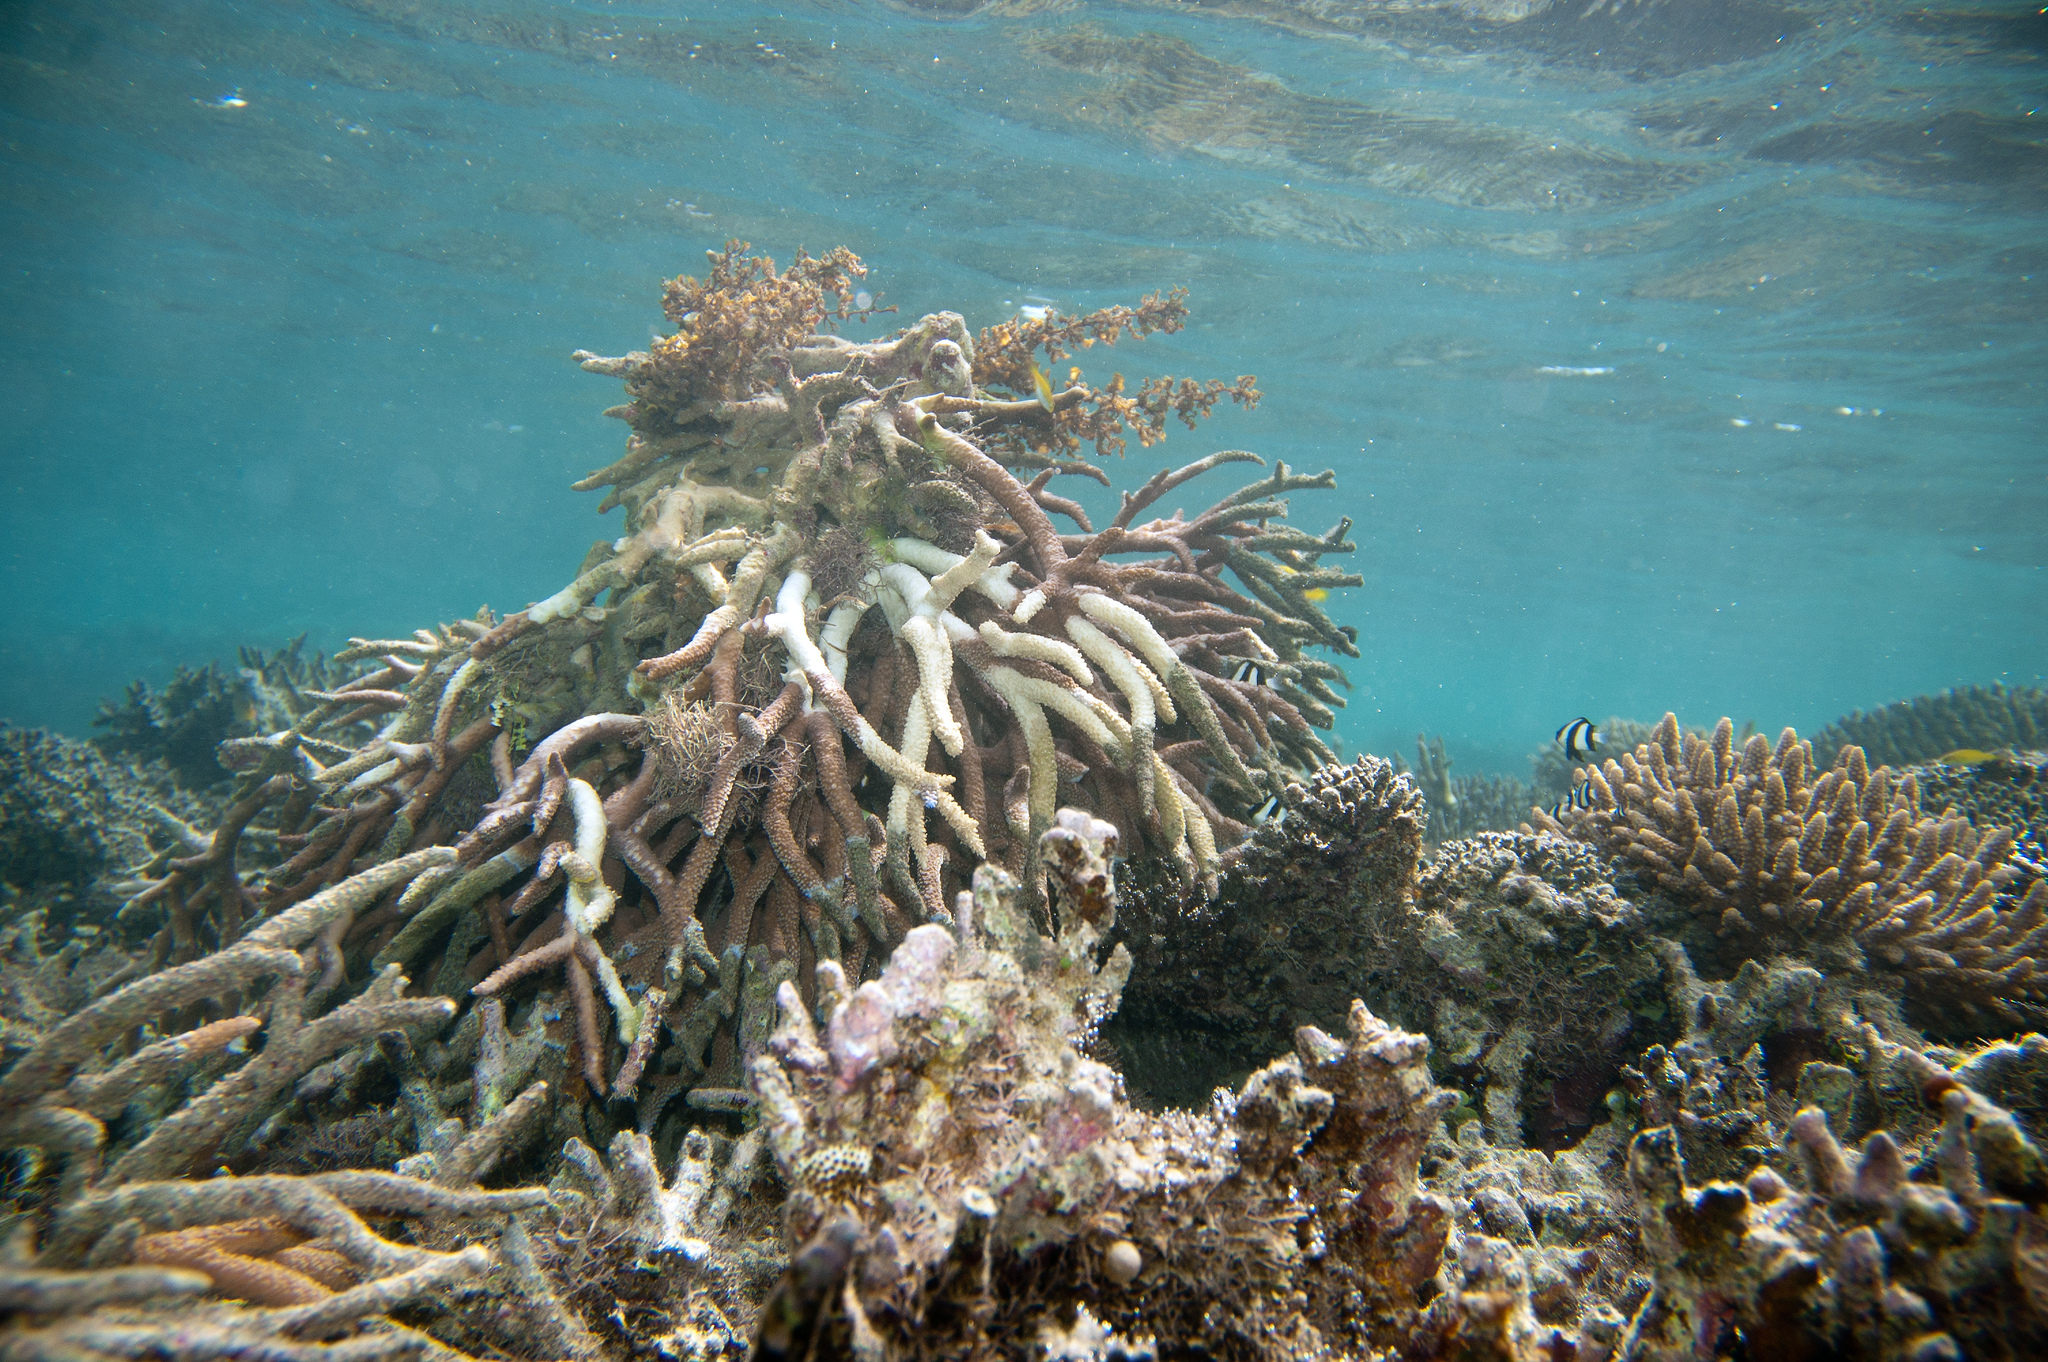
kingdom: Animalia
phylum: Chordata
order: Perciformes
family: Pomacentridae
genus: Dascyllus
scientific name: Dascyllus aruanus
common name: Humbug dascyllus
